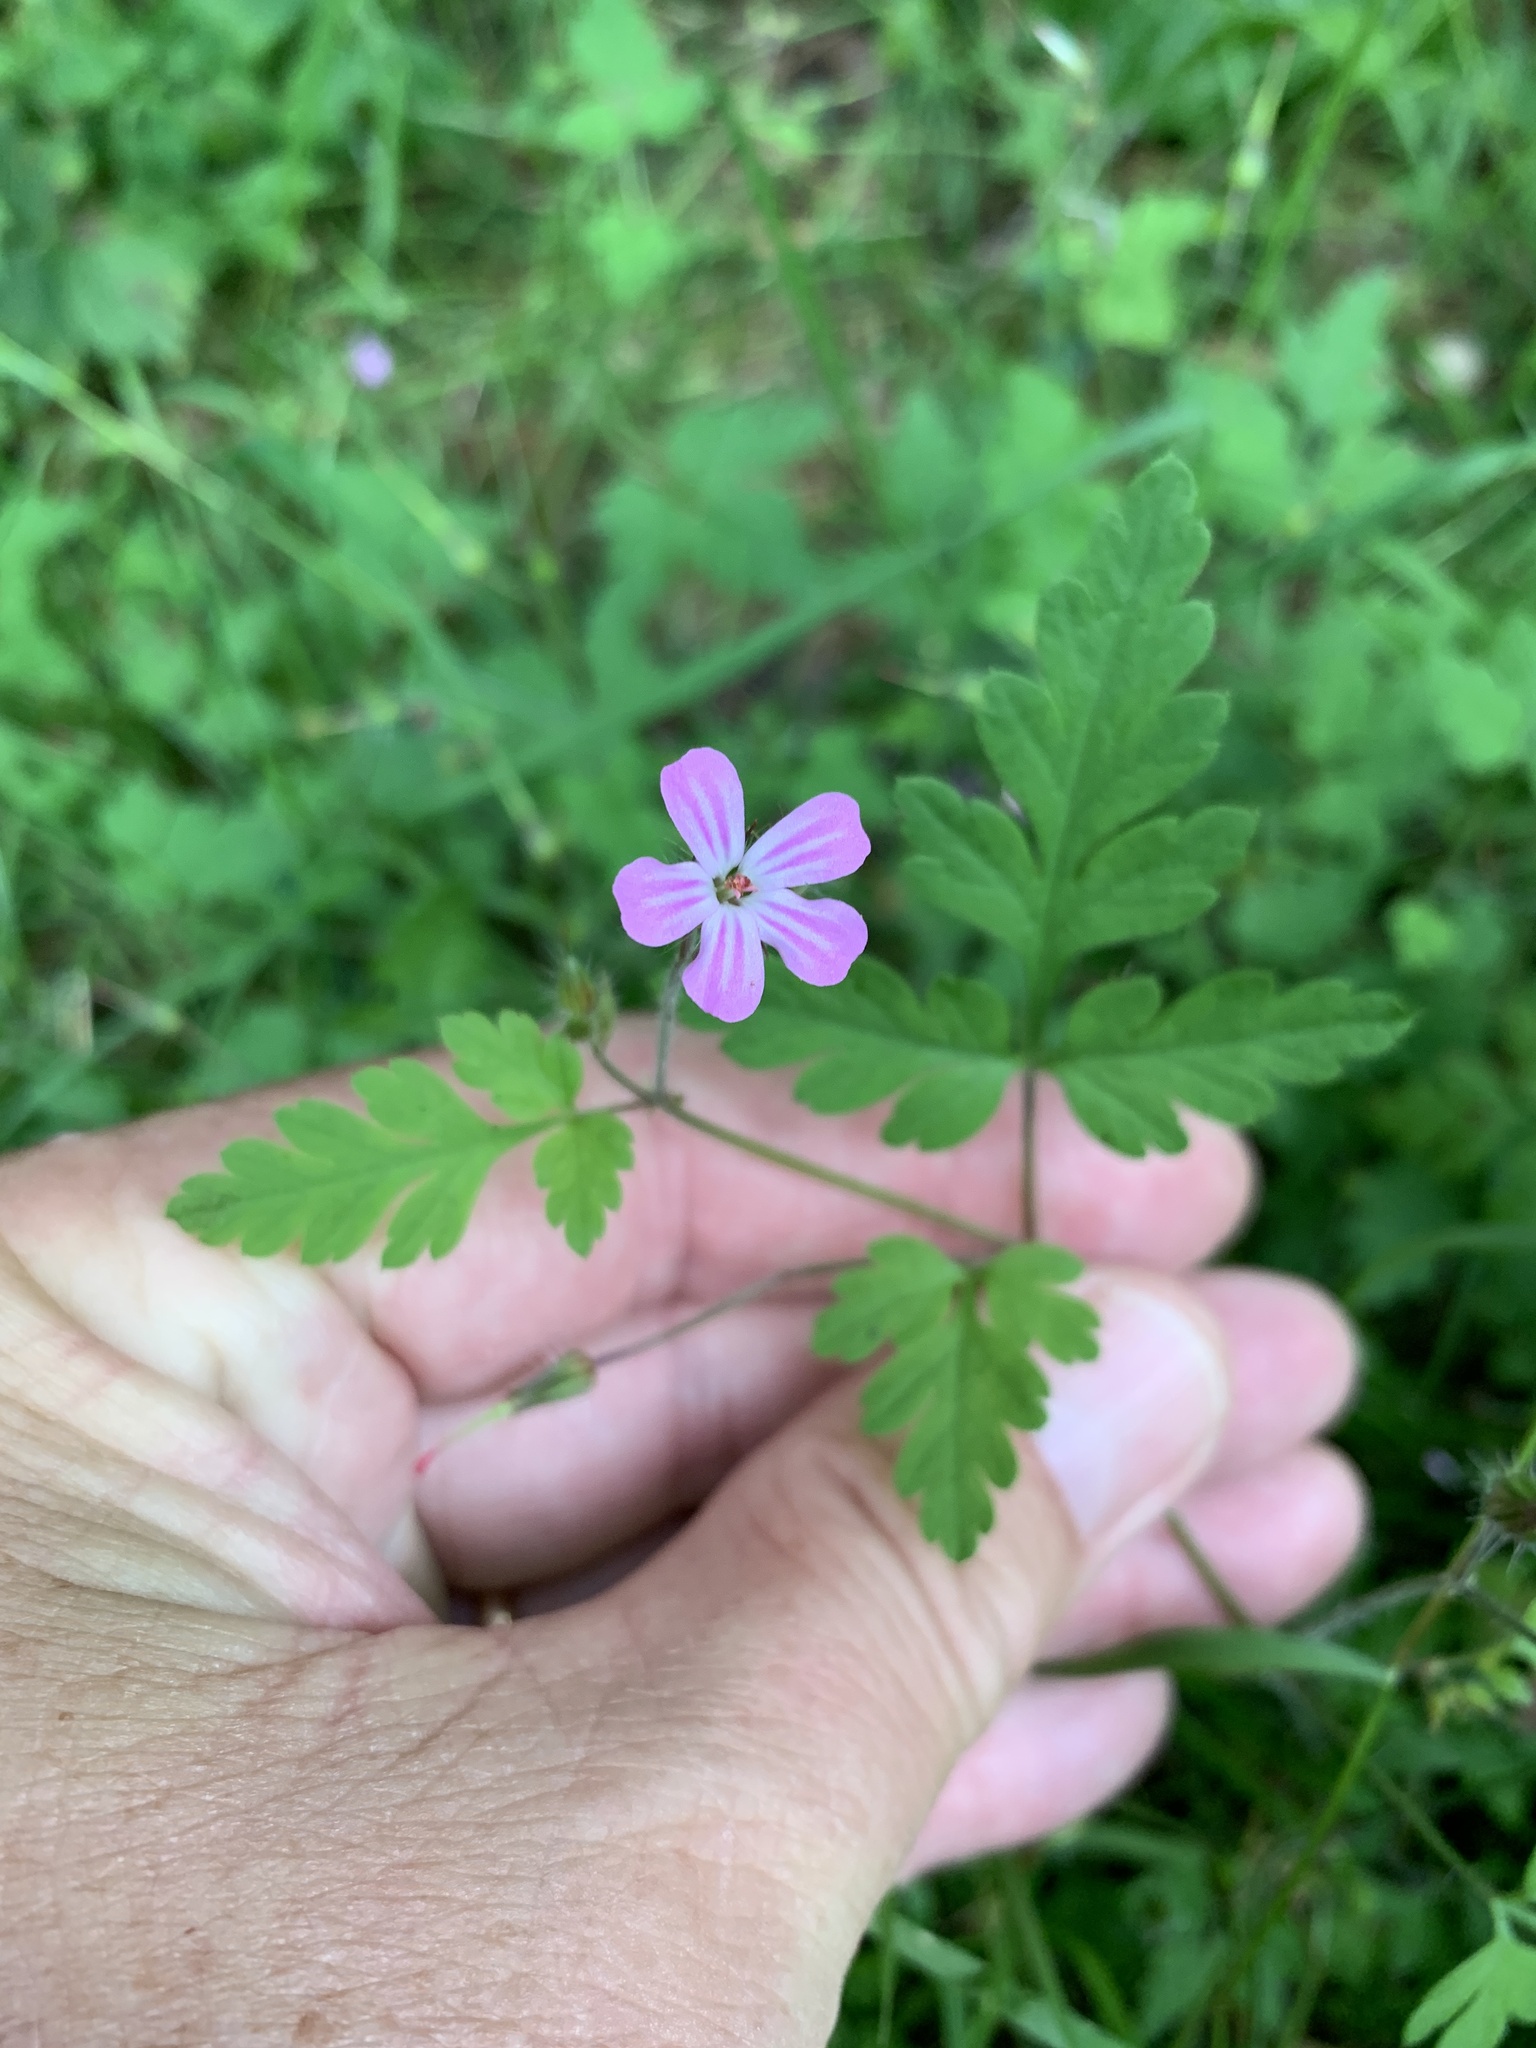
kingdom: Plantae
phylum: Tracheophyta
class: Magnoliopsida
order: Geraniales
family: Geraniaceae
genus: Geranium
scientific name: Geranium robertianum
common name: Herb-robert
